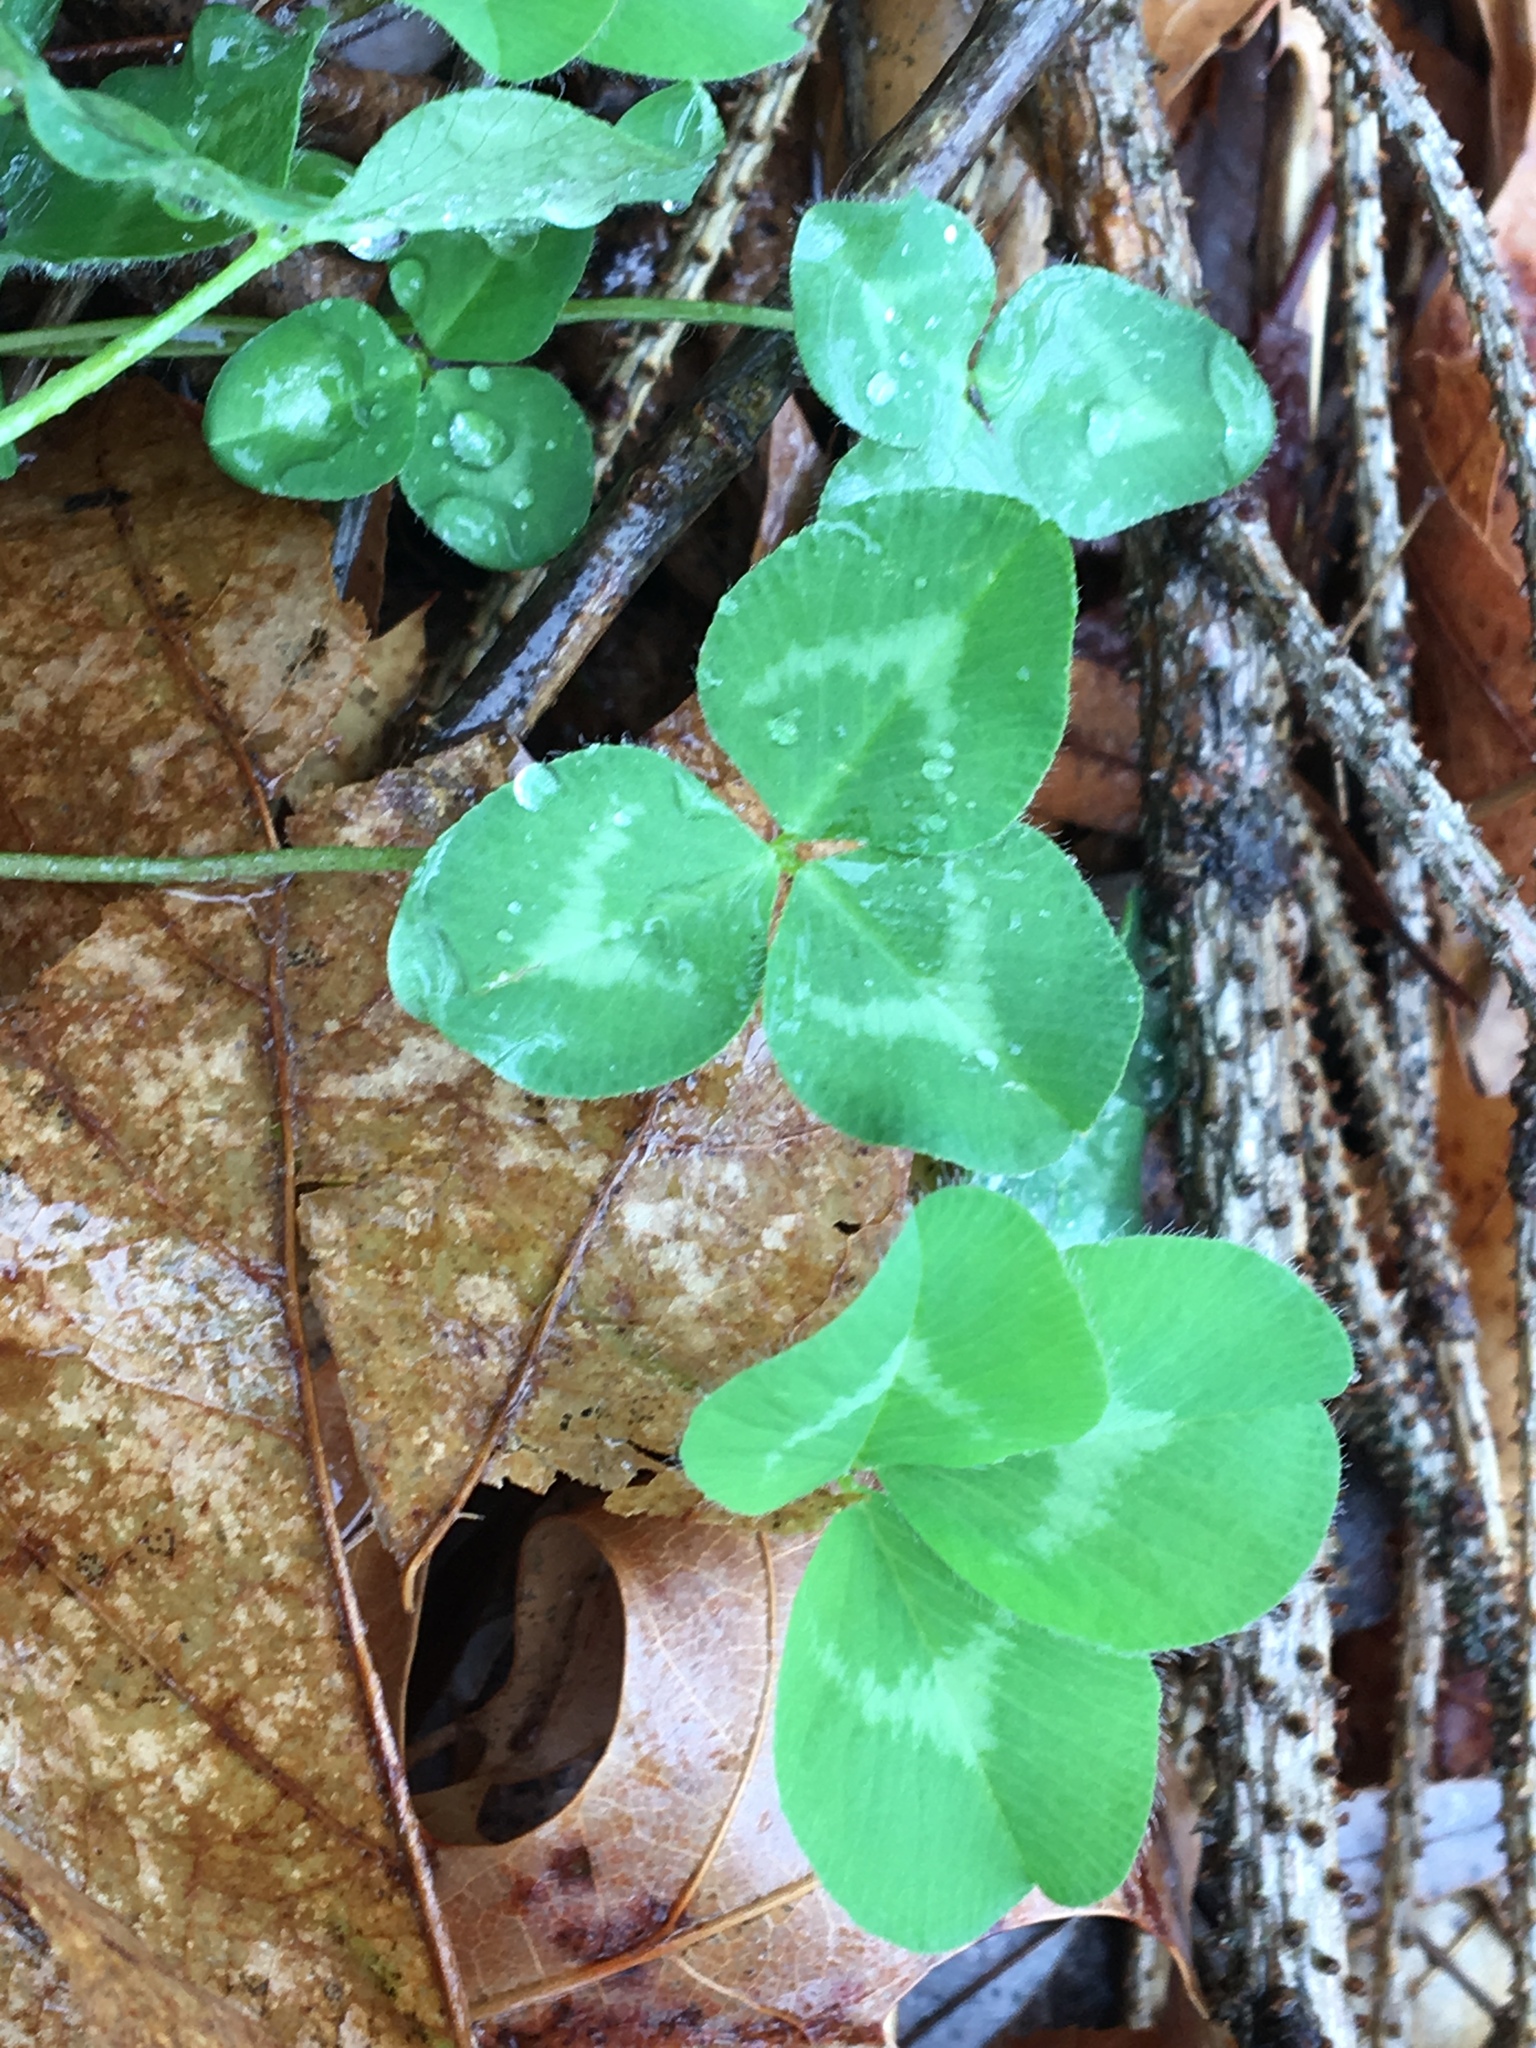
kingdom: Plantae
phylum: Tracheophyta
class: Magnoliopsida
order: Fabales
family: Fabaceae
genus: Trifolium
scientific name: Trifolium repens
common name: White clover
